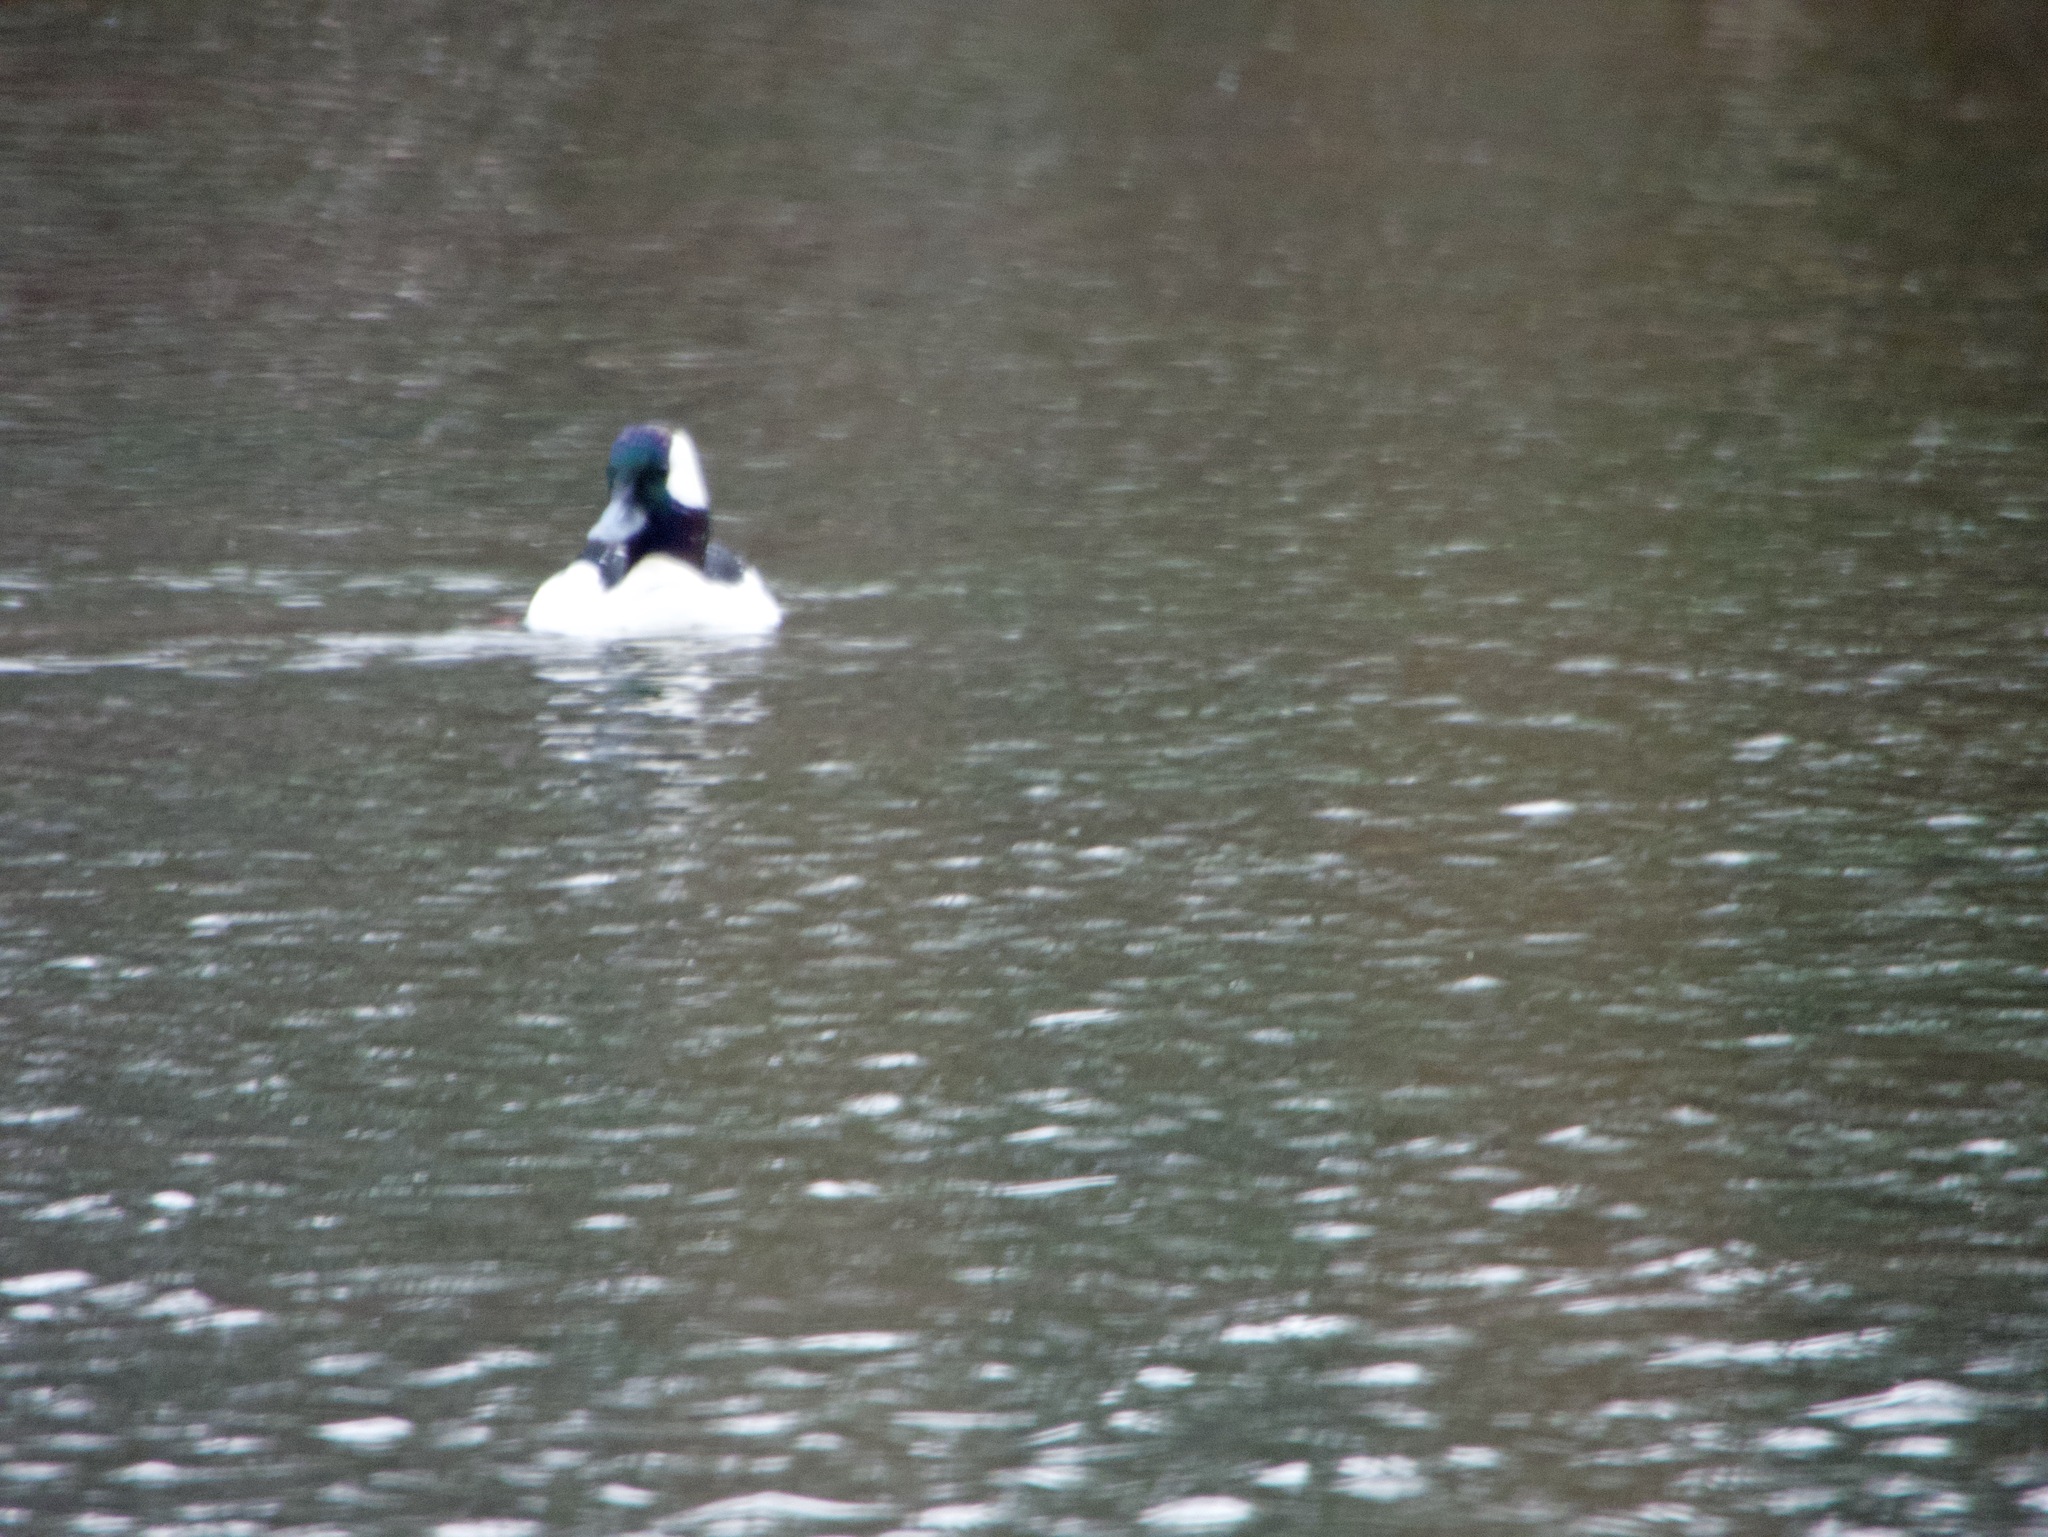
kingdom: Animalia
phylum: Chordata
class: Aves
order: Anseriformes
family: Anatidae
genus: Bucephala
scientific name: Bucephala albeola
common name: Bufflehead
